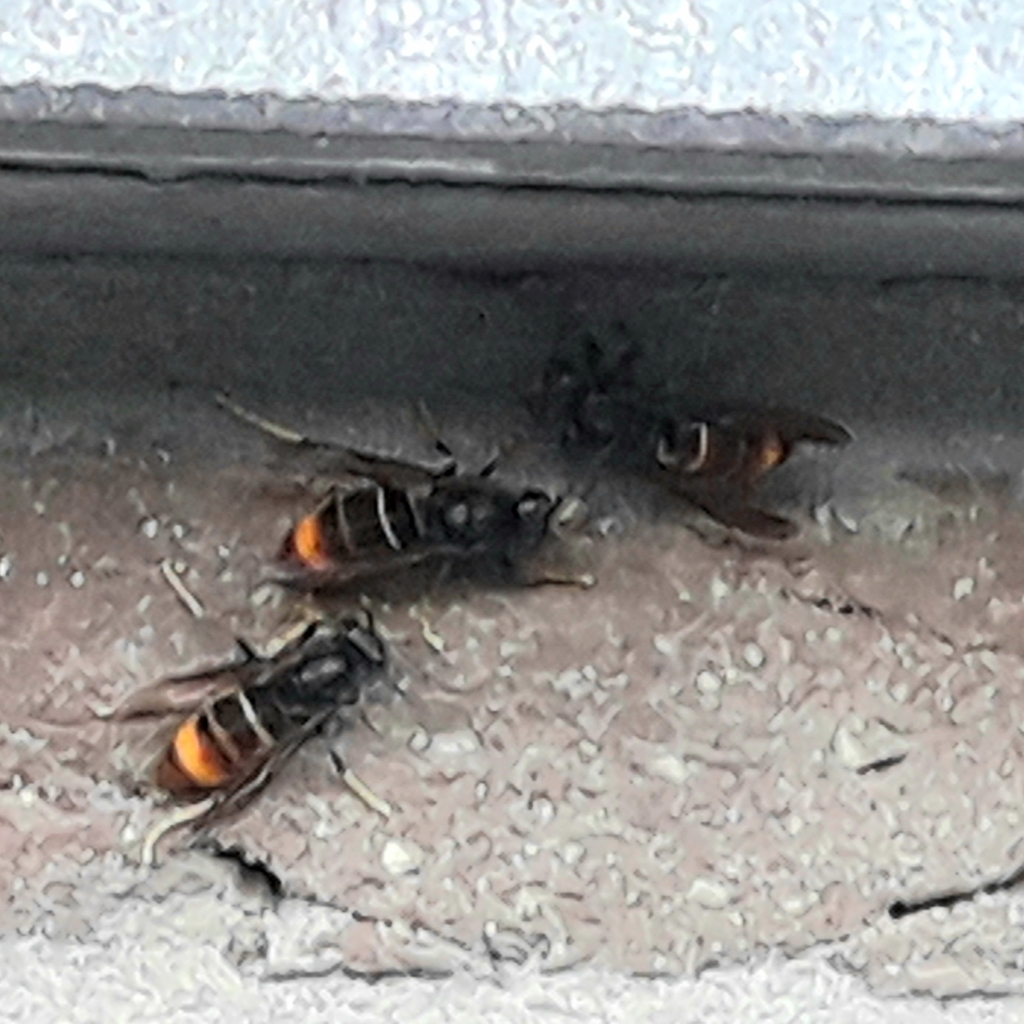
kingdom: Animalia
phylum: Arthropoda
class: Insecta
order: Hymenoptera
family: Vespidae
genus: Vespa
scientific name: Vespa velutina
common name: Asian hornet
